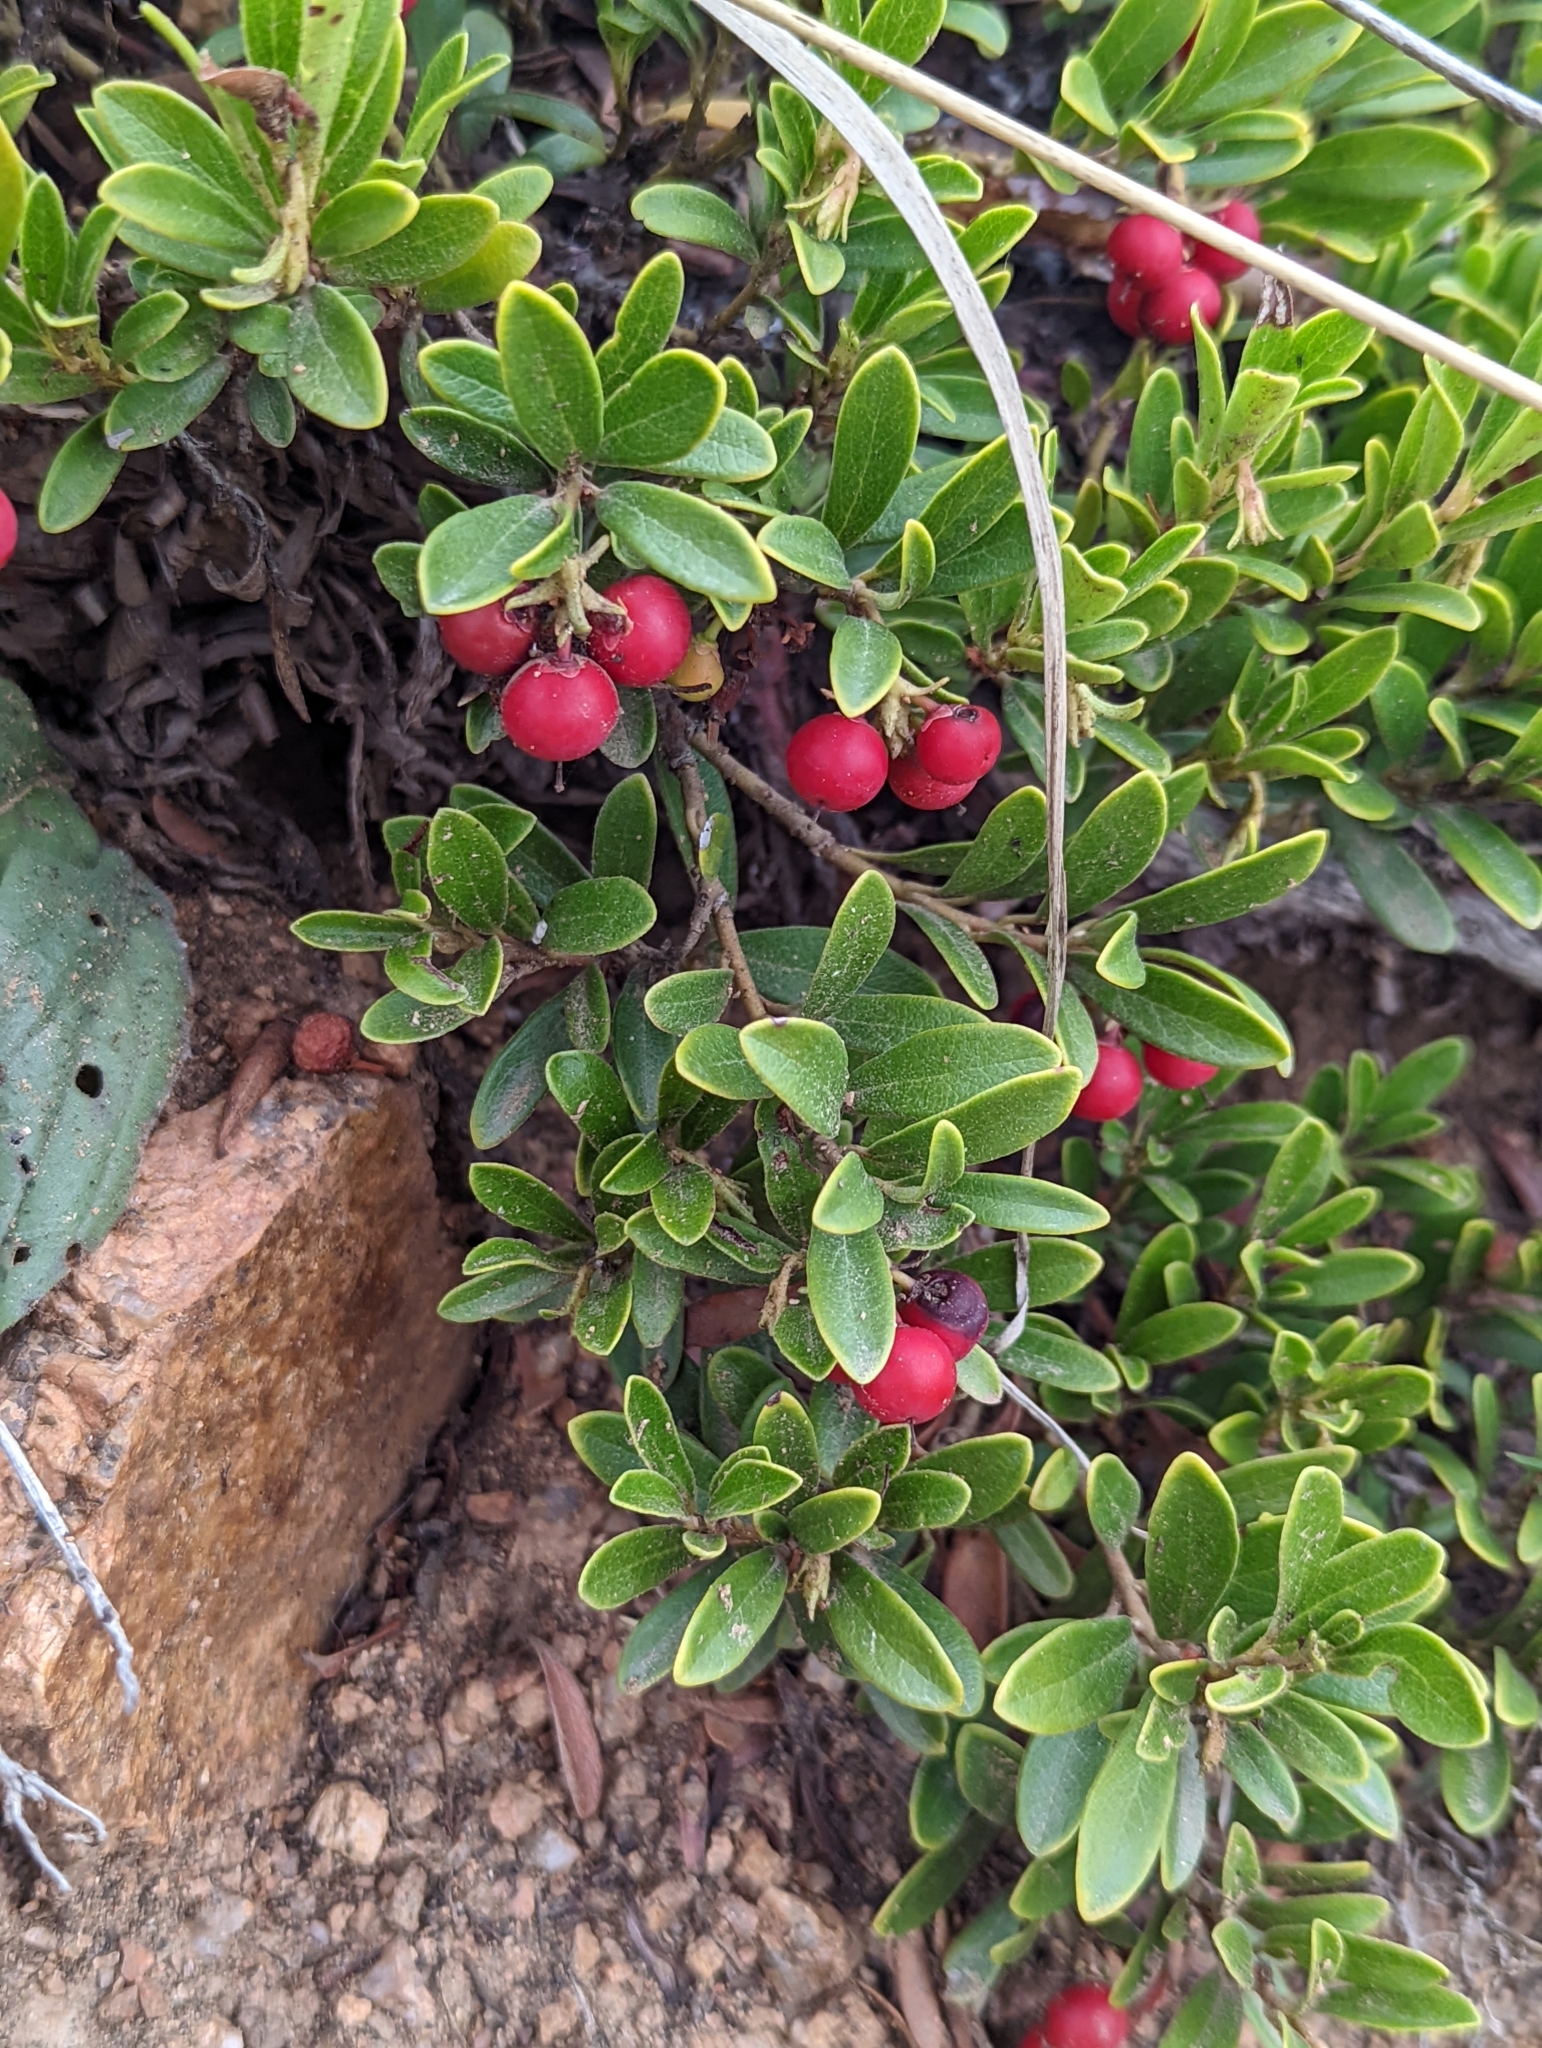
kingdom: Plantae
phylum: Tracheophyta
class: Magnoliopsida
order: Ericales
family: Ericaceae
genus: Arctostaphylos
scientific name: Arctostaphylos uva-ursi
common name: Bearberry
